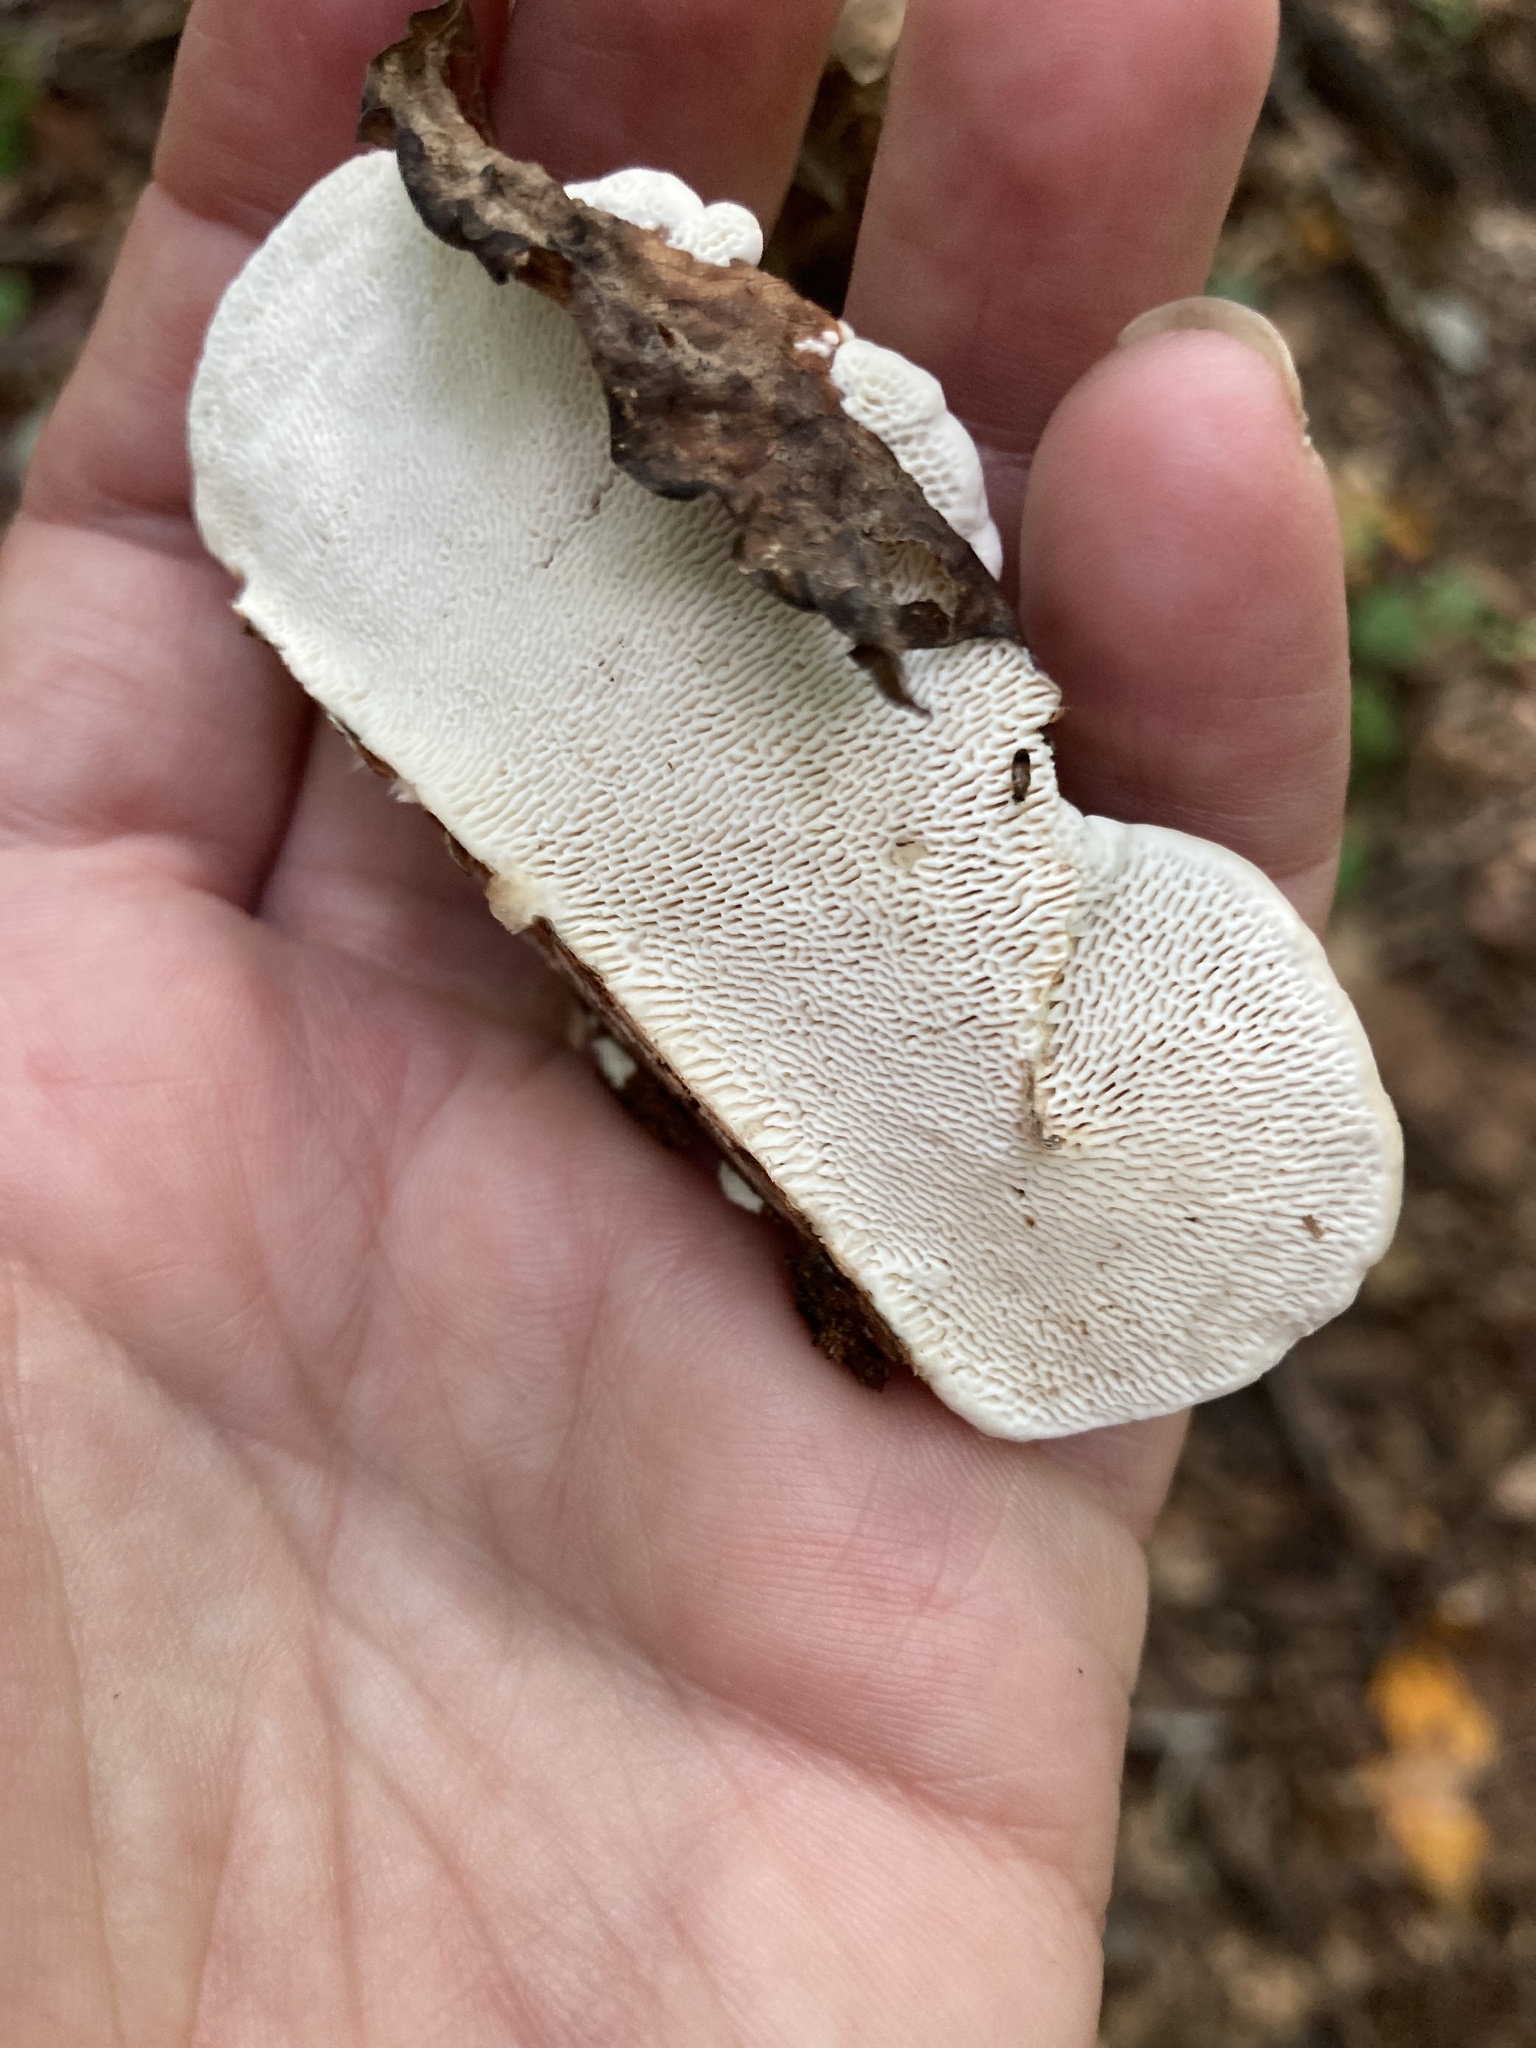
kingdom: Fungi
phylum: Basidiomycota
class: Agaricomycetes
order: Polyporales
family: Polyporaceae
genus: Trametes
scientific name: Trametes gibbosa
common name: Lumpy bracket
